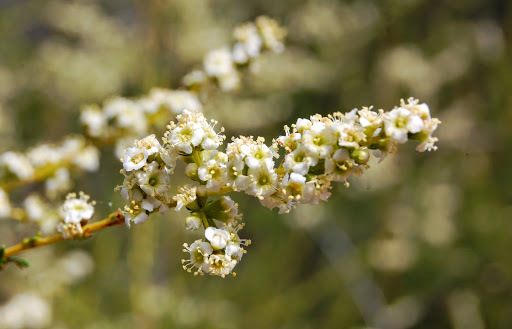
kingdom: Plantae
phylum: Tracheophyta
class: Magnoliopsida
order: Rosales
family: Rosaceae
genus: Adenostoma
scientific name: Adenostoma fasciculatum
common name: Chamise
